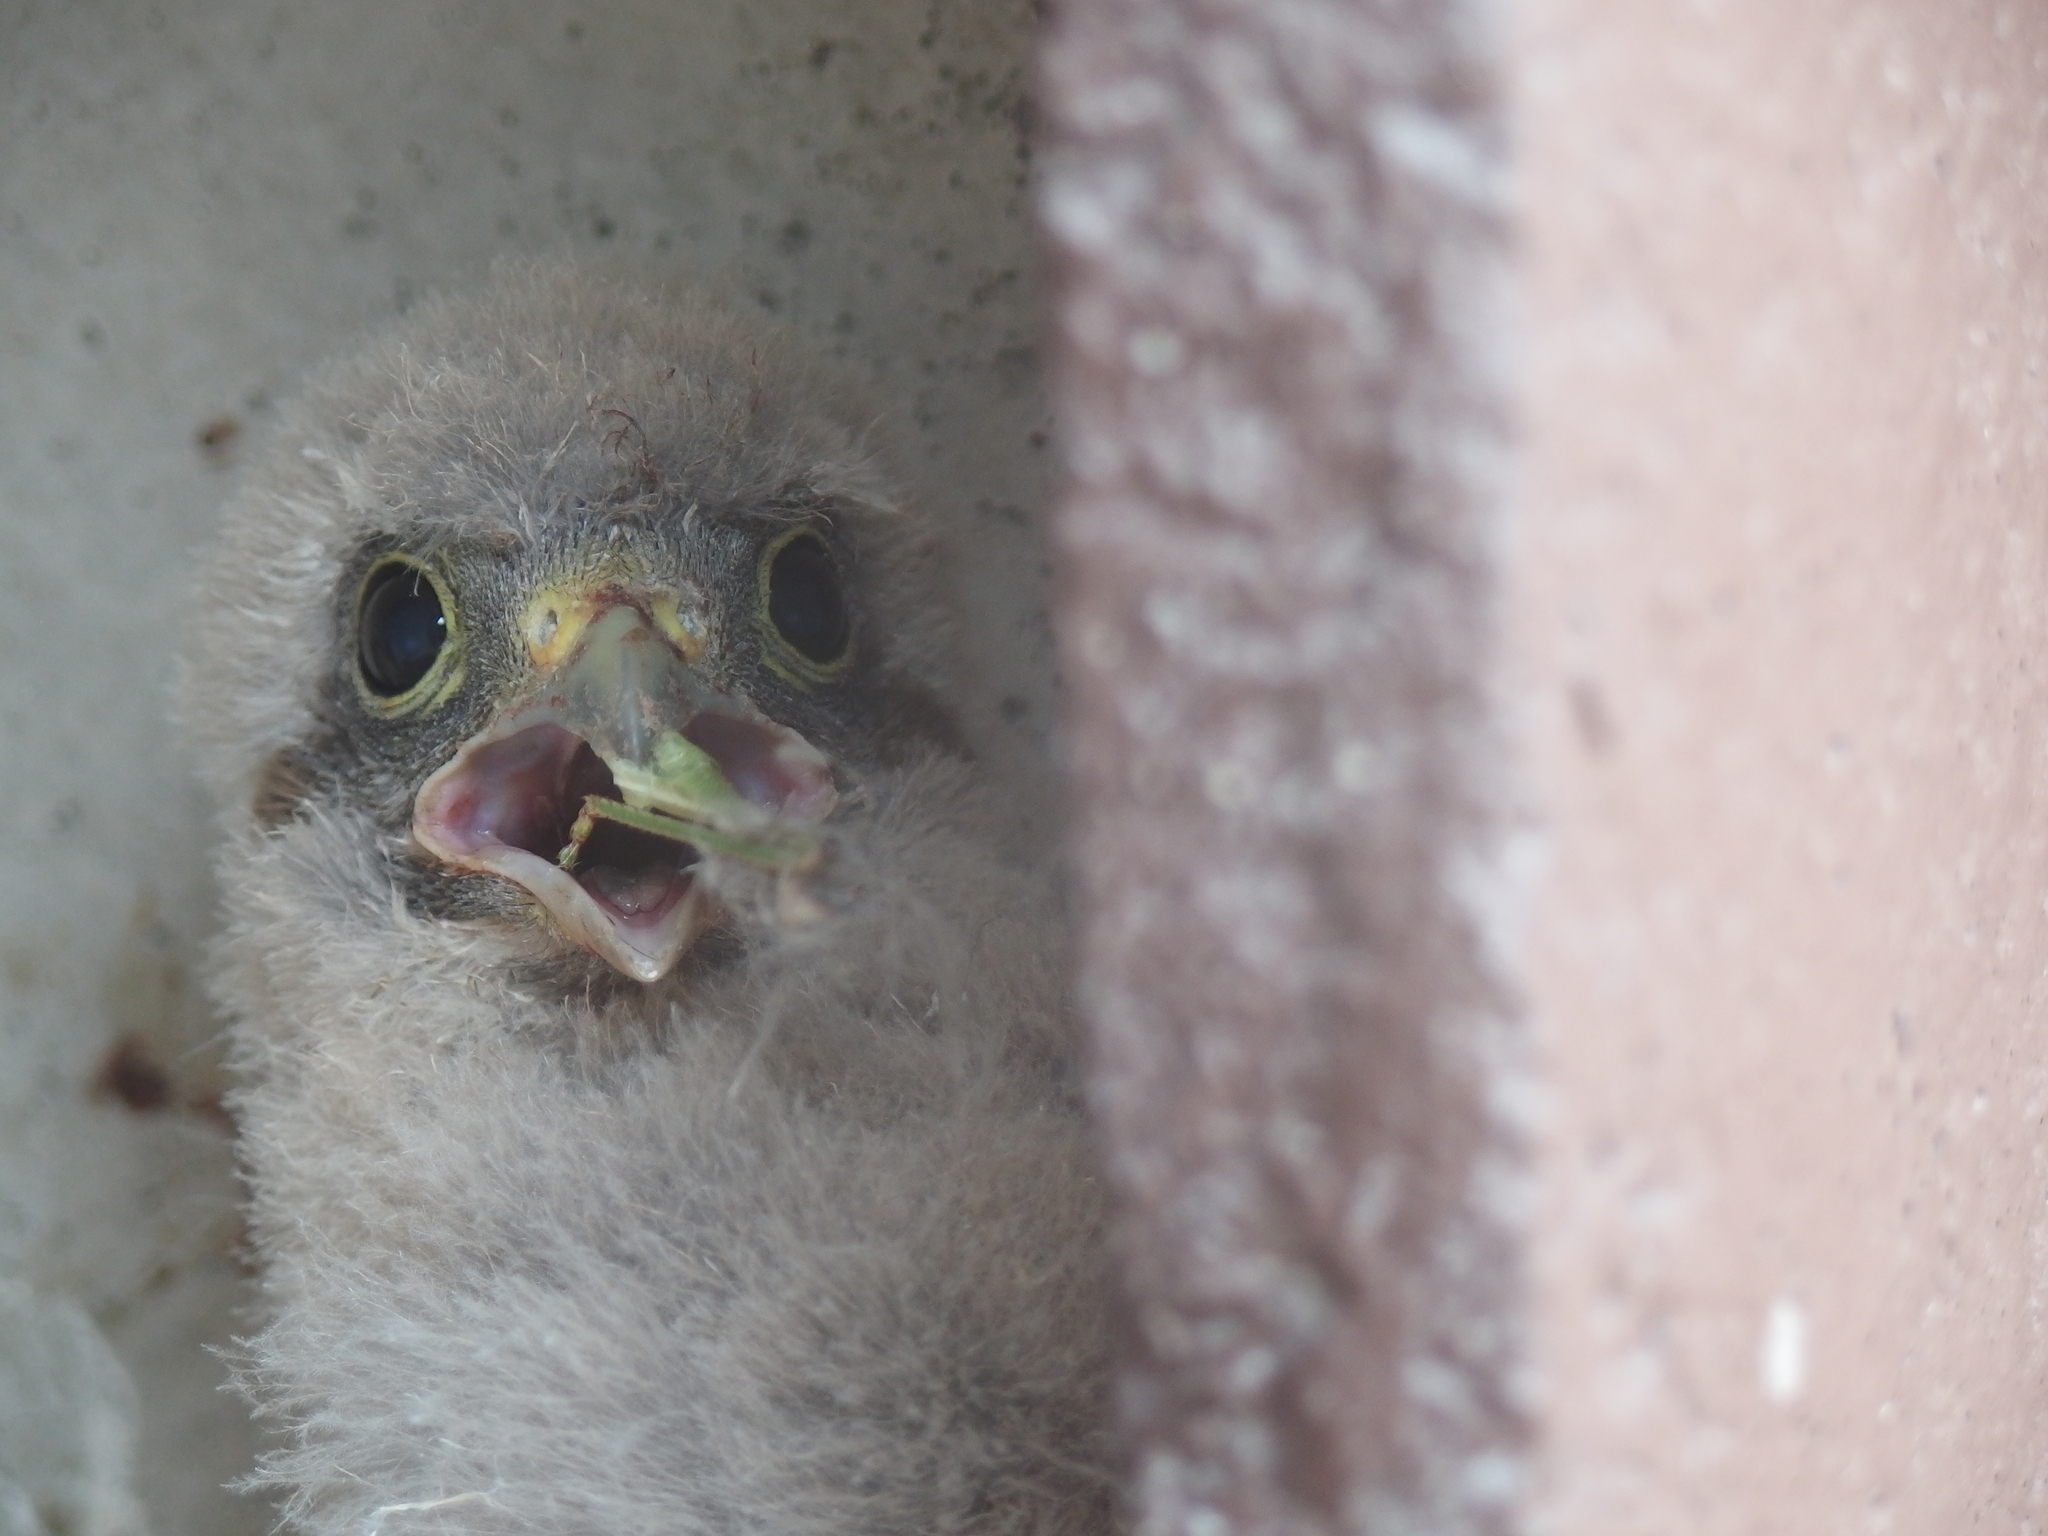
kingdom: Animalia
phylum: Chordata
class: Aves
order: Falconiformes
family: Falconidae
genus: Falco
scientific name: Falco tinnunculus
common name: Common kestrel
